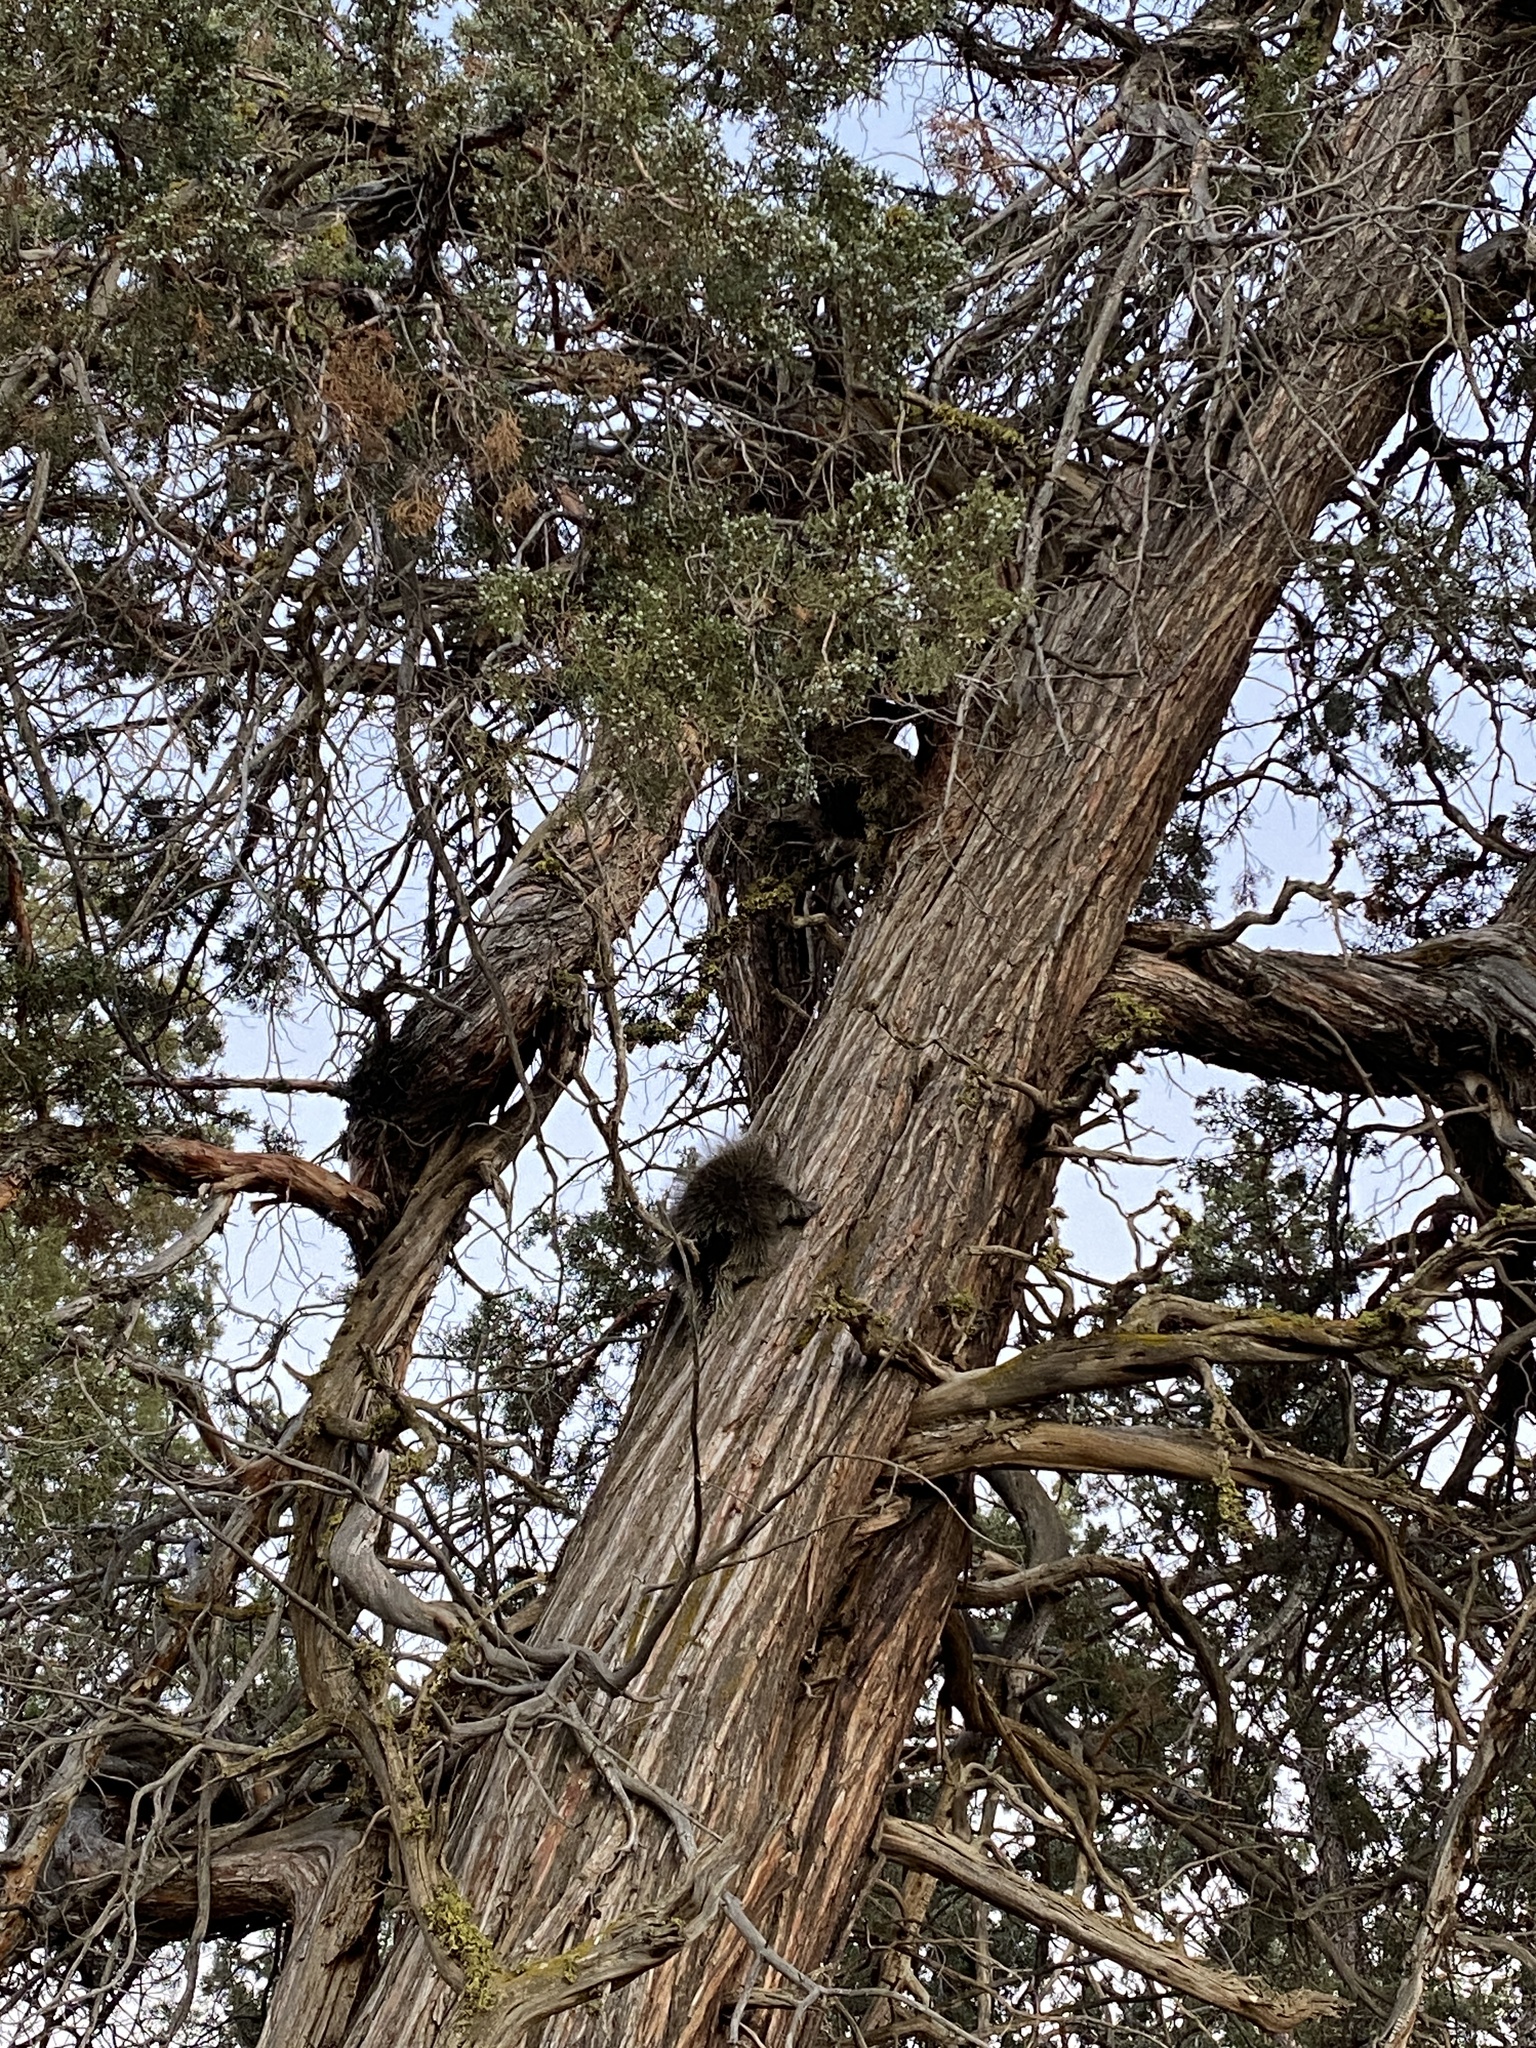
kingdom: Animalia
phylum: Chordata
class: Mammalia
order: Rodentia
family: Erethizontidae
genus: Erethizon
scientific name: Erethizon dorsatus
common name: North american porcupine
